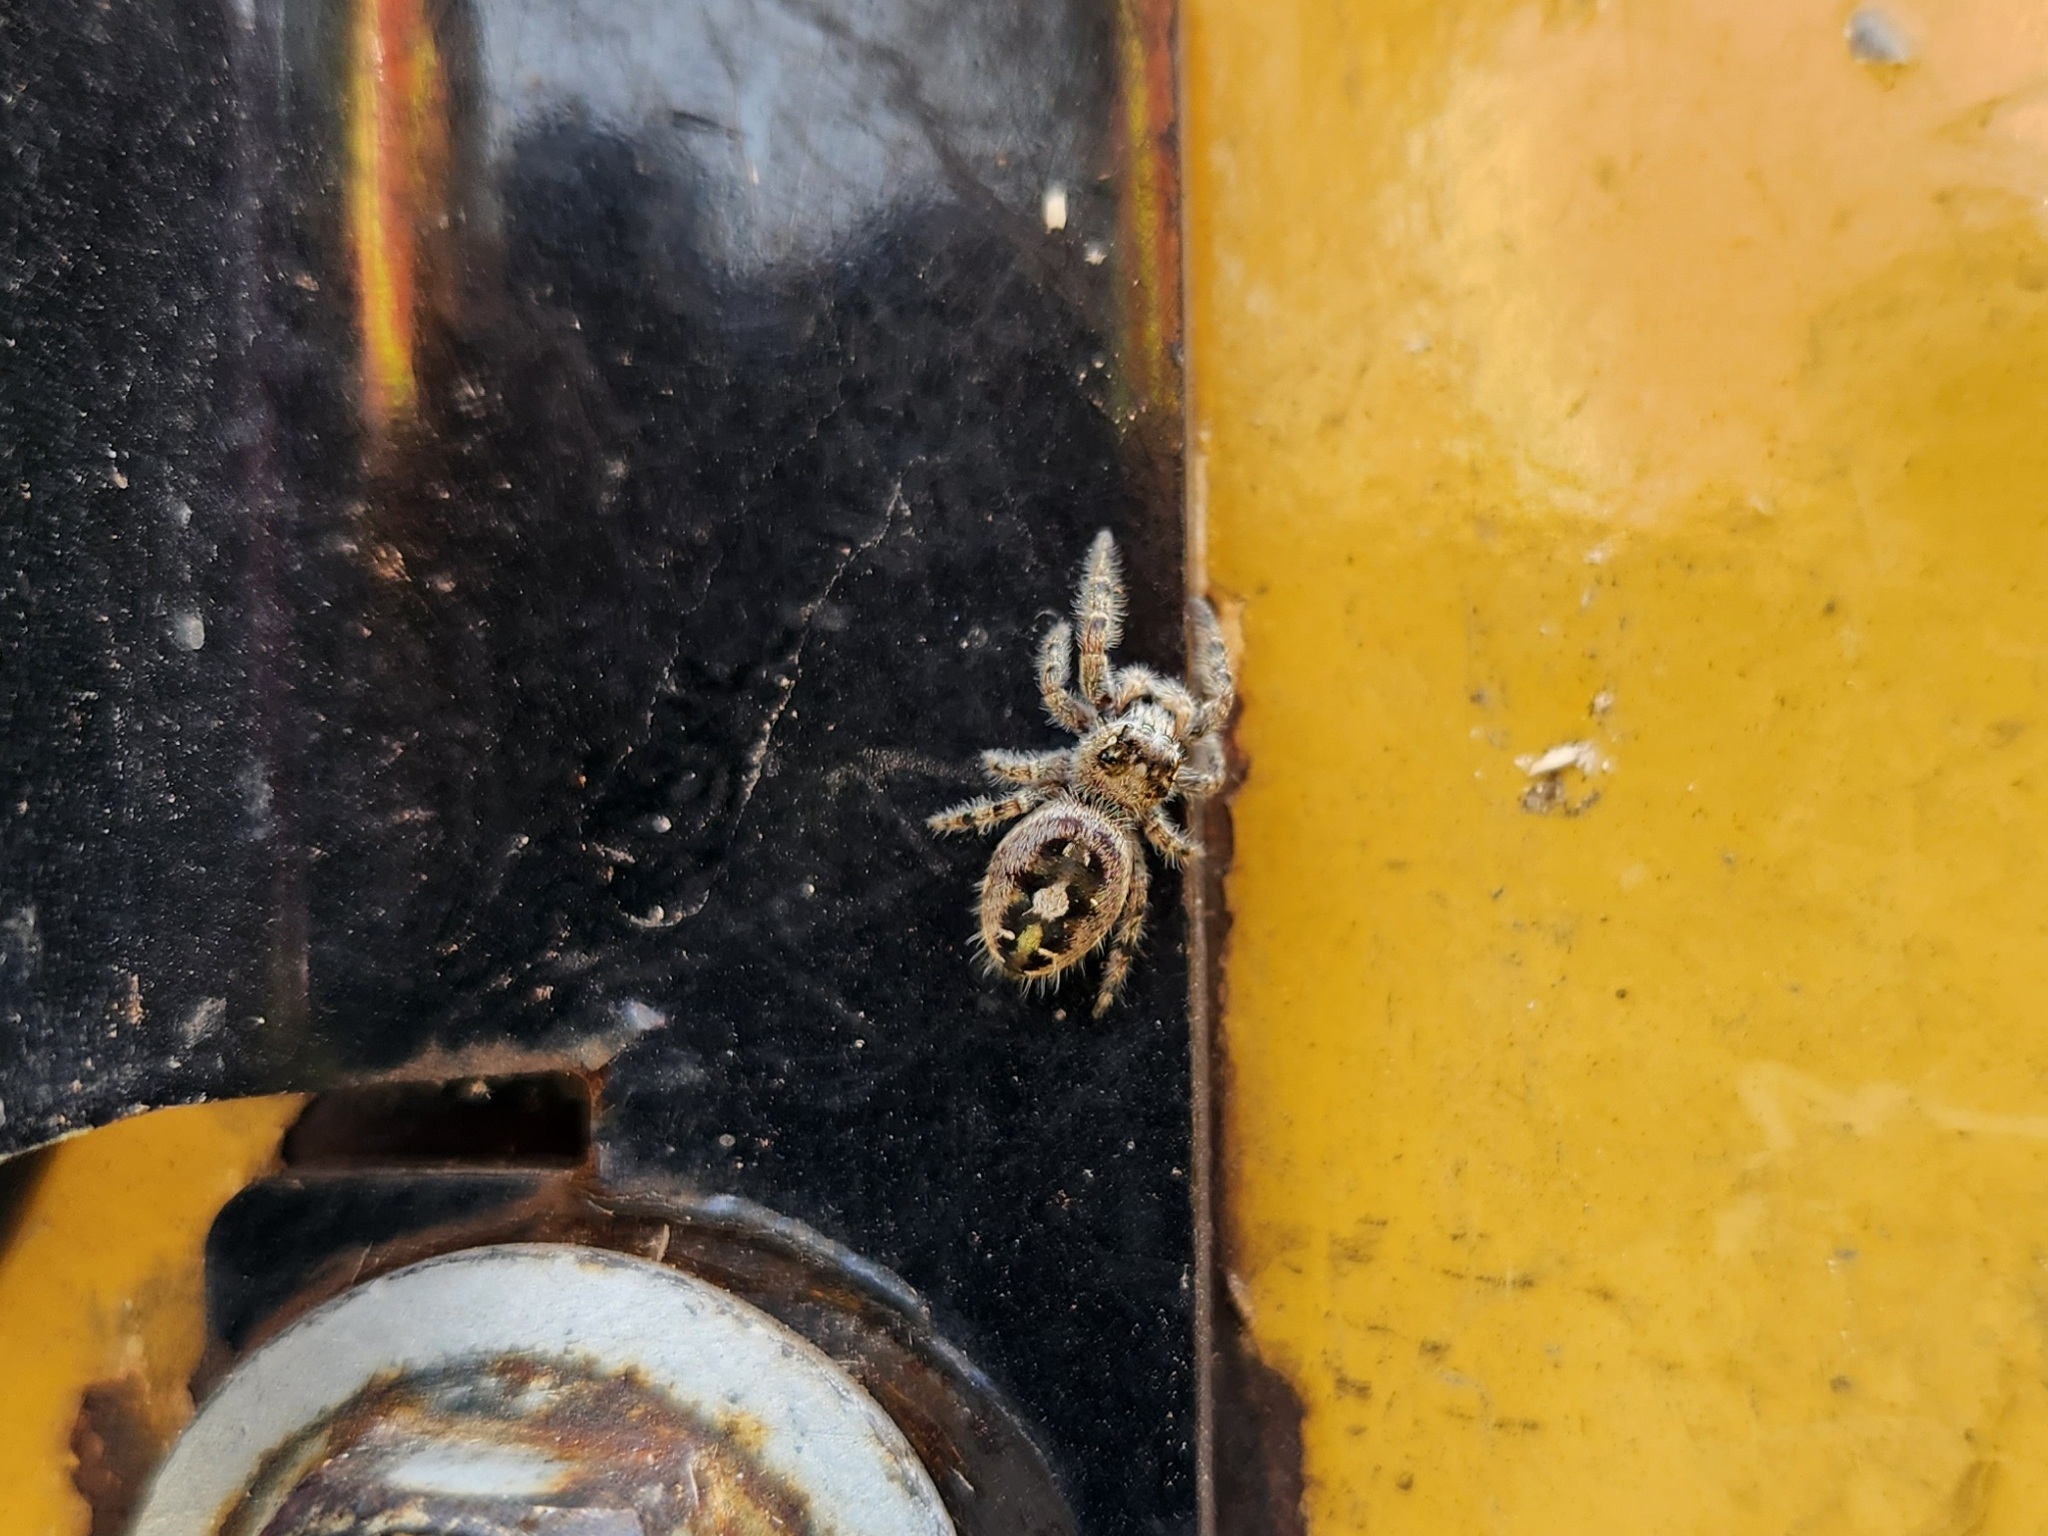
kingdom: Animalia
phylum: Arthropoda
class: Arachnida
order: Araneae
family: Salticidae
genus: Phidippus
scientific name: Phidippus putnami
